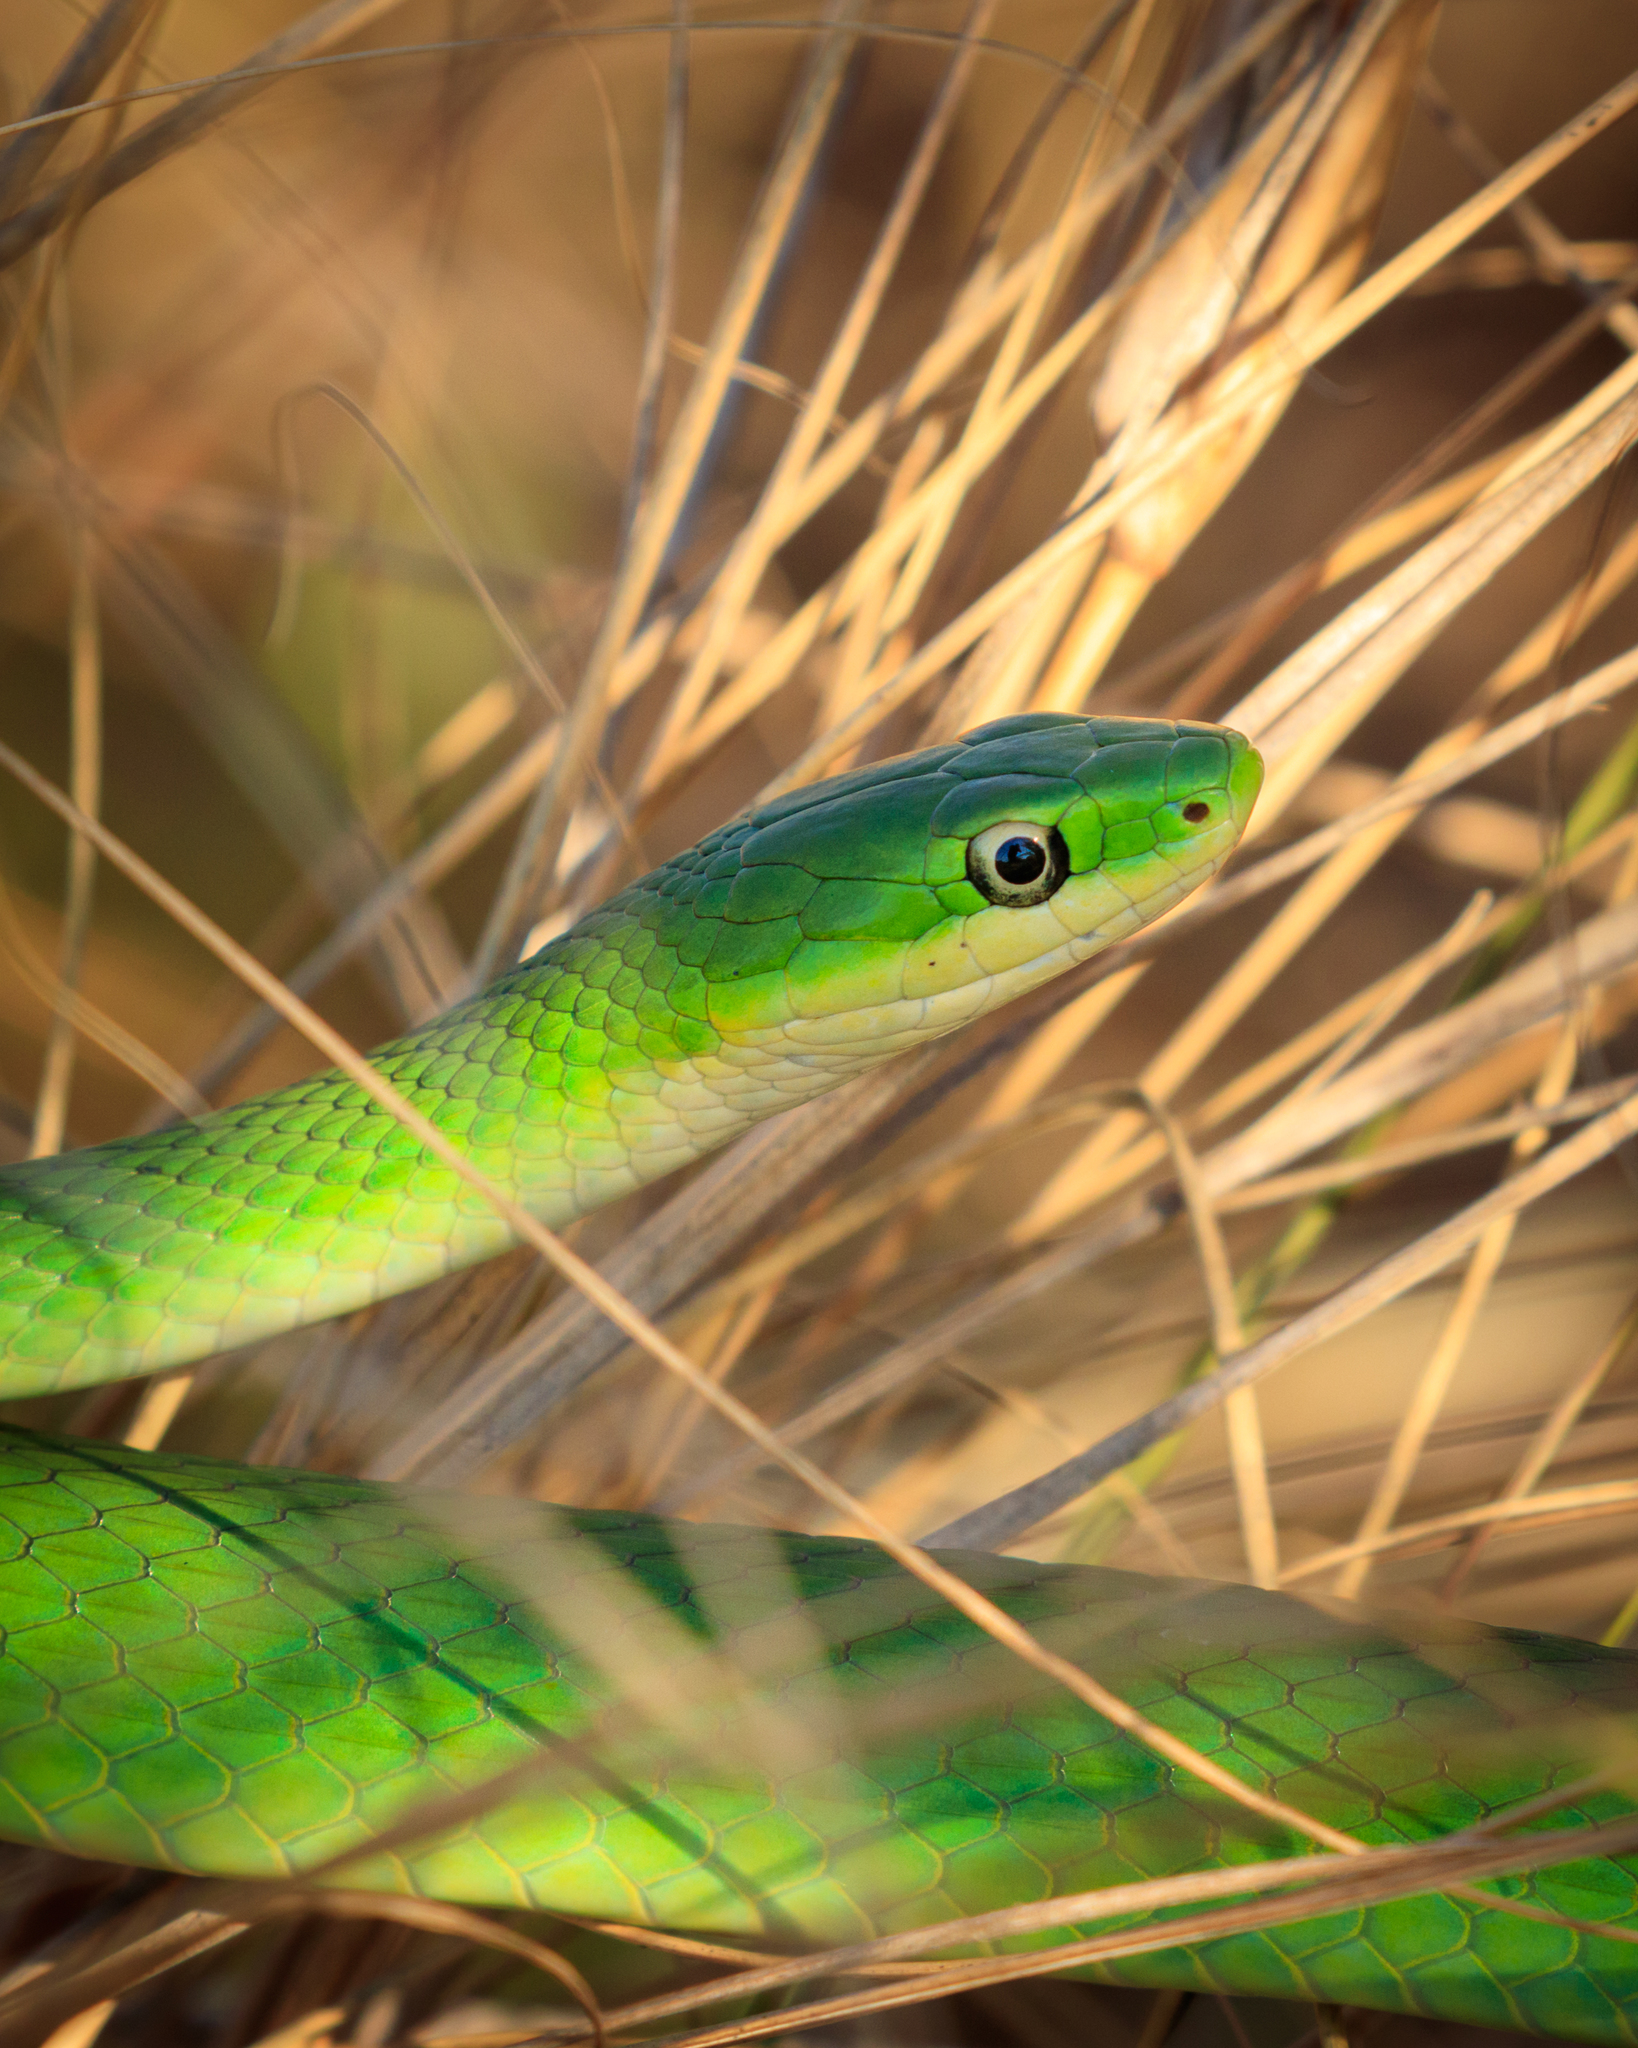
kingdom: Animalia
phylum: Chordata
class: Squamata
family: Colubridae
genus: Opheodrys
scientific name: Opheodrys aestivus
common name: Rough greensnake
